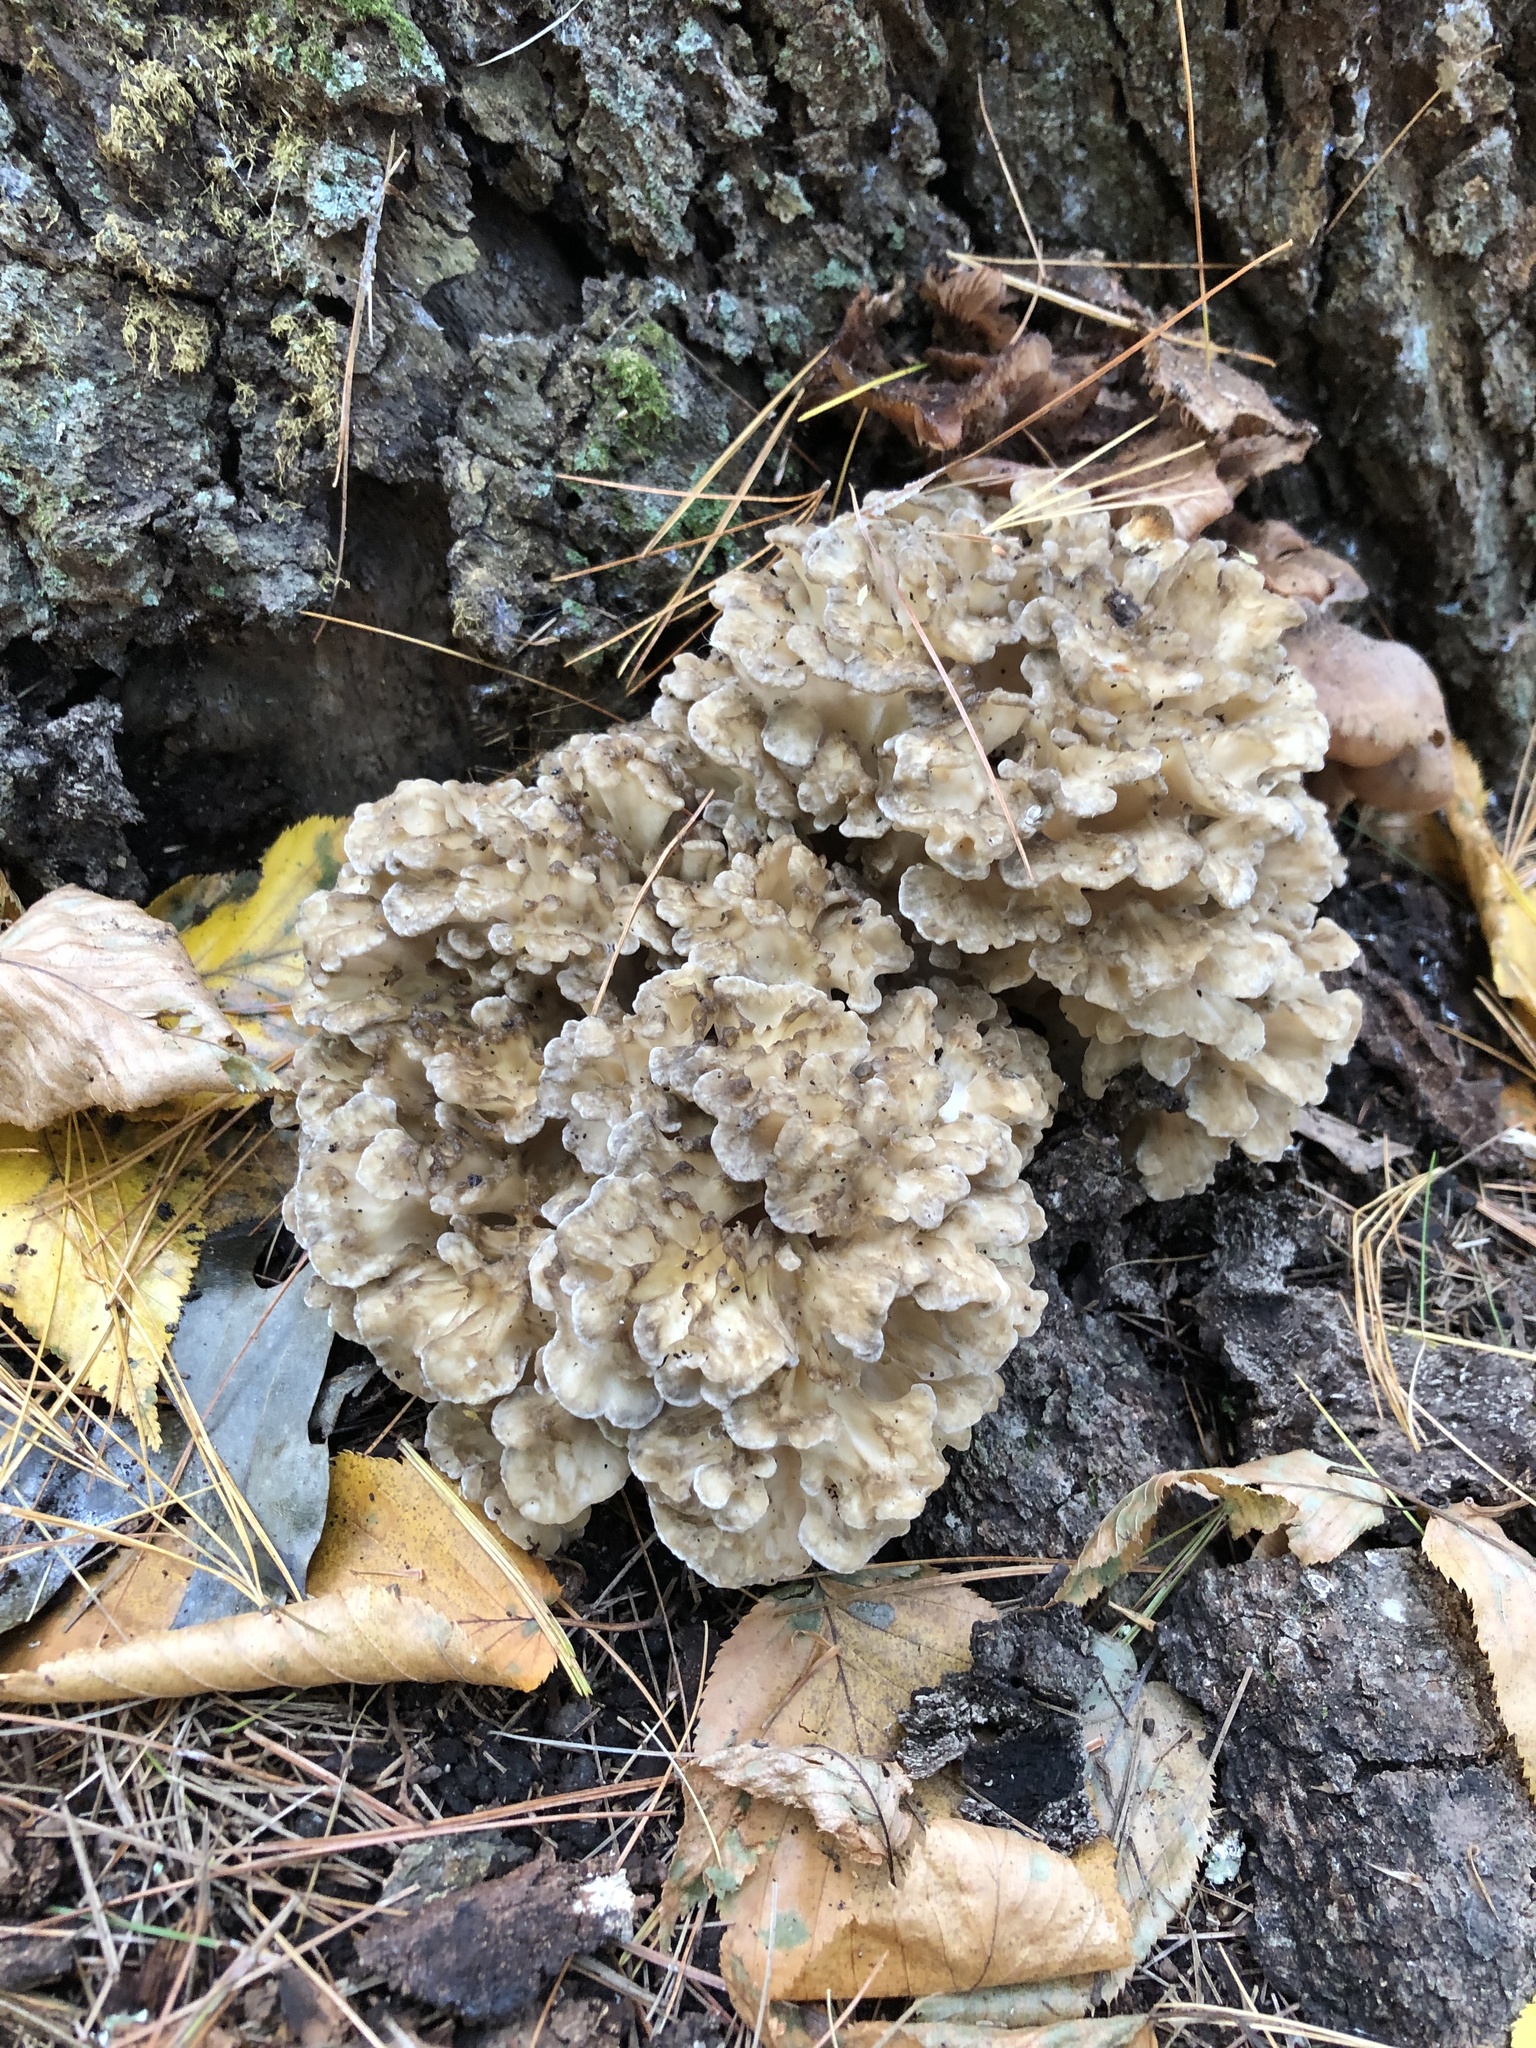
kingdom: Fungi
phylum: Basidiomycota
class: Agaricomycetes
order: Polyporales
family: Grifolaceae
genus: Grifola
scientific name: Grifola frondosa
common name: Hen of the woods
